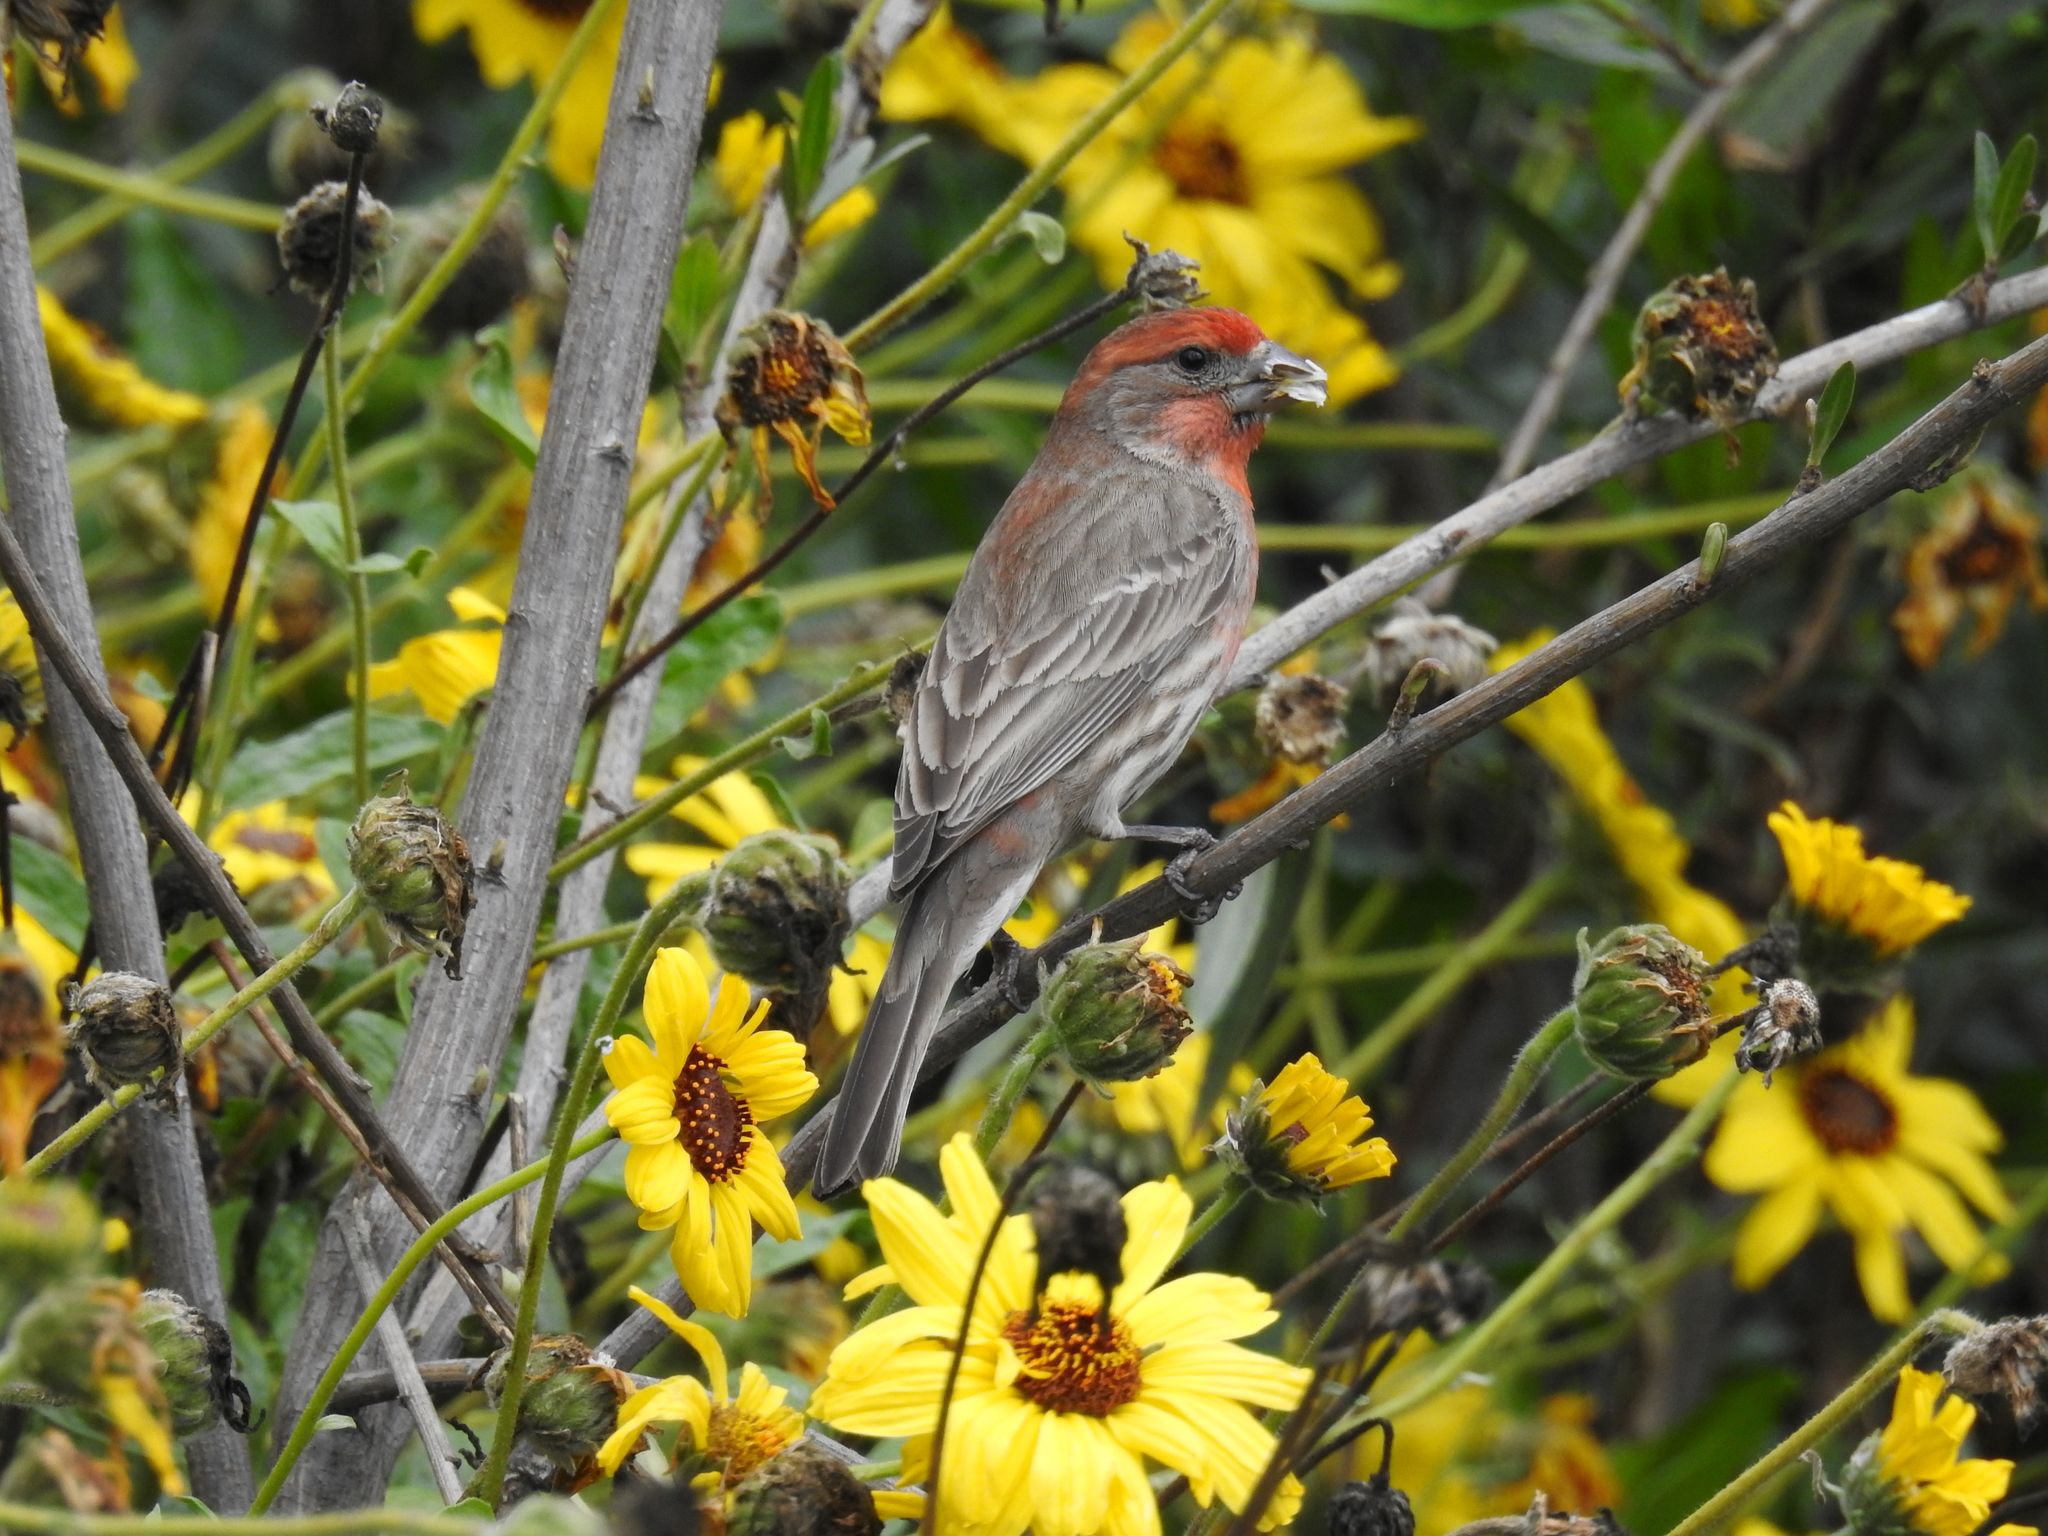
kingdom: Animalia
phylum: Chordata
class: Aves
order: Passeriformes
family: Fringillidae
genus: Haemorhous
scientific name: Haemorhous mexicanus
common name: House finch
